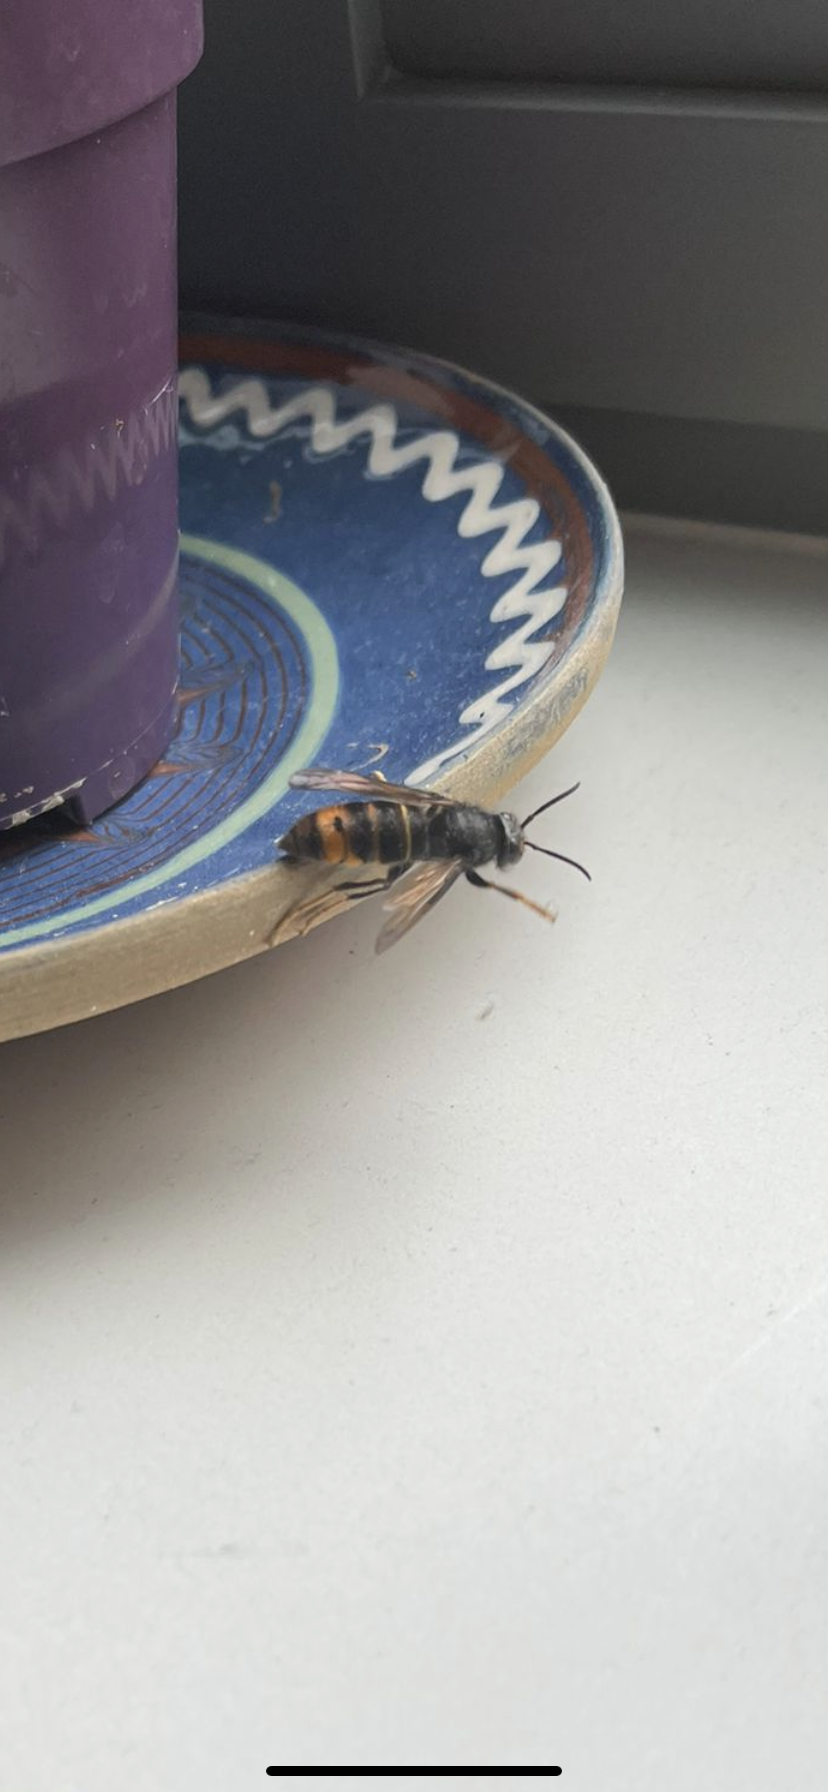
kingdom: Animalia
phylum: Arthropoda
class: Insecta
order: Hymenoptera
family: Vespidae
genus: Vespa
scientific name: Vespa velutina
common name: Asian hornet
